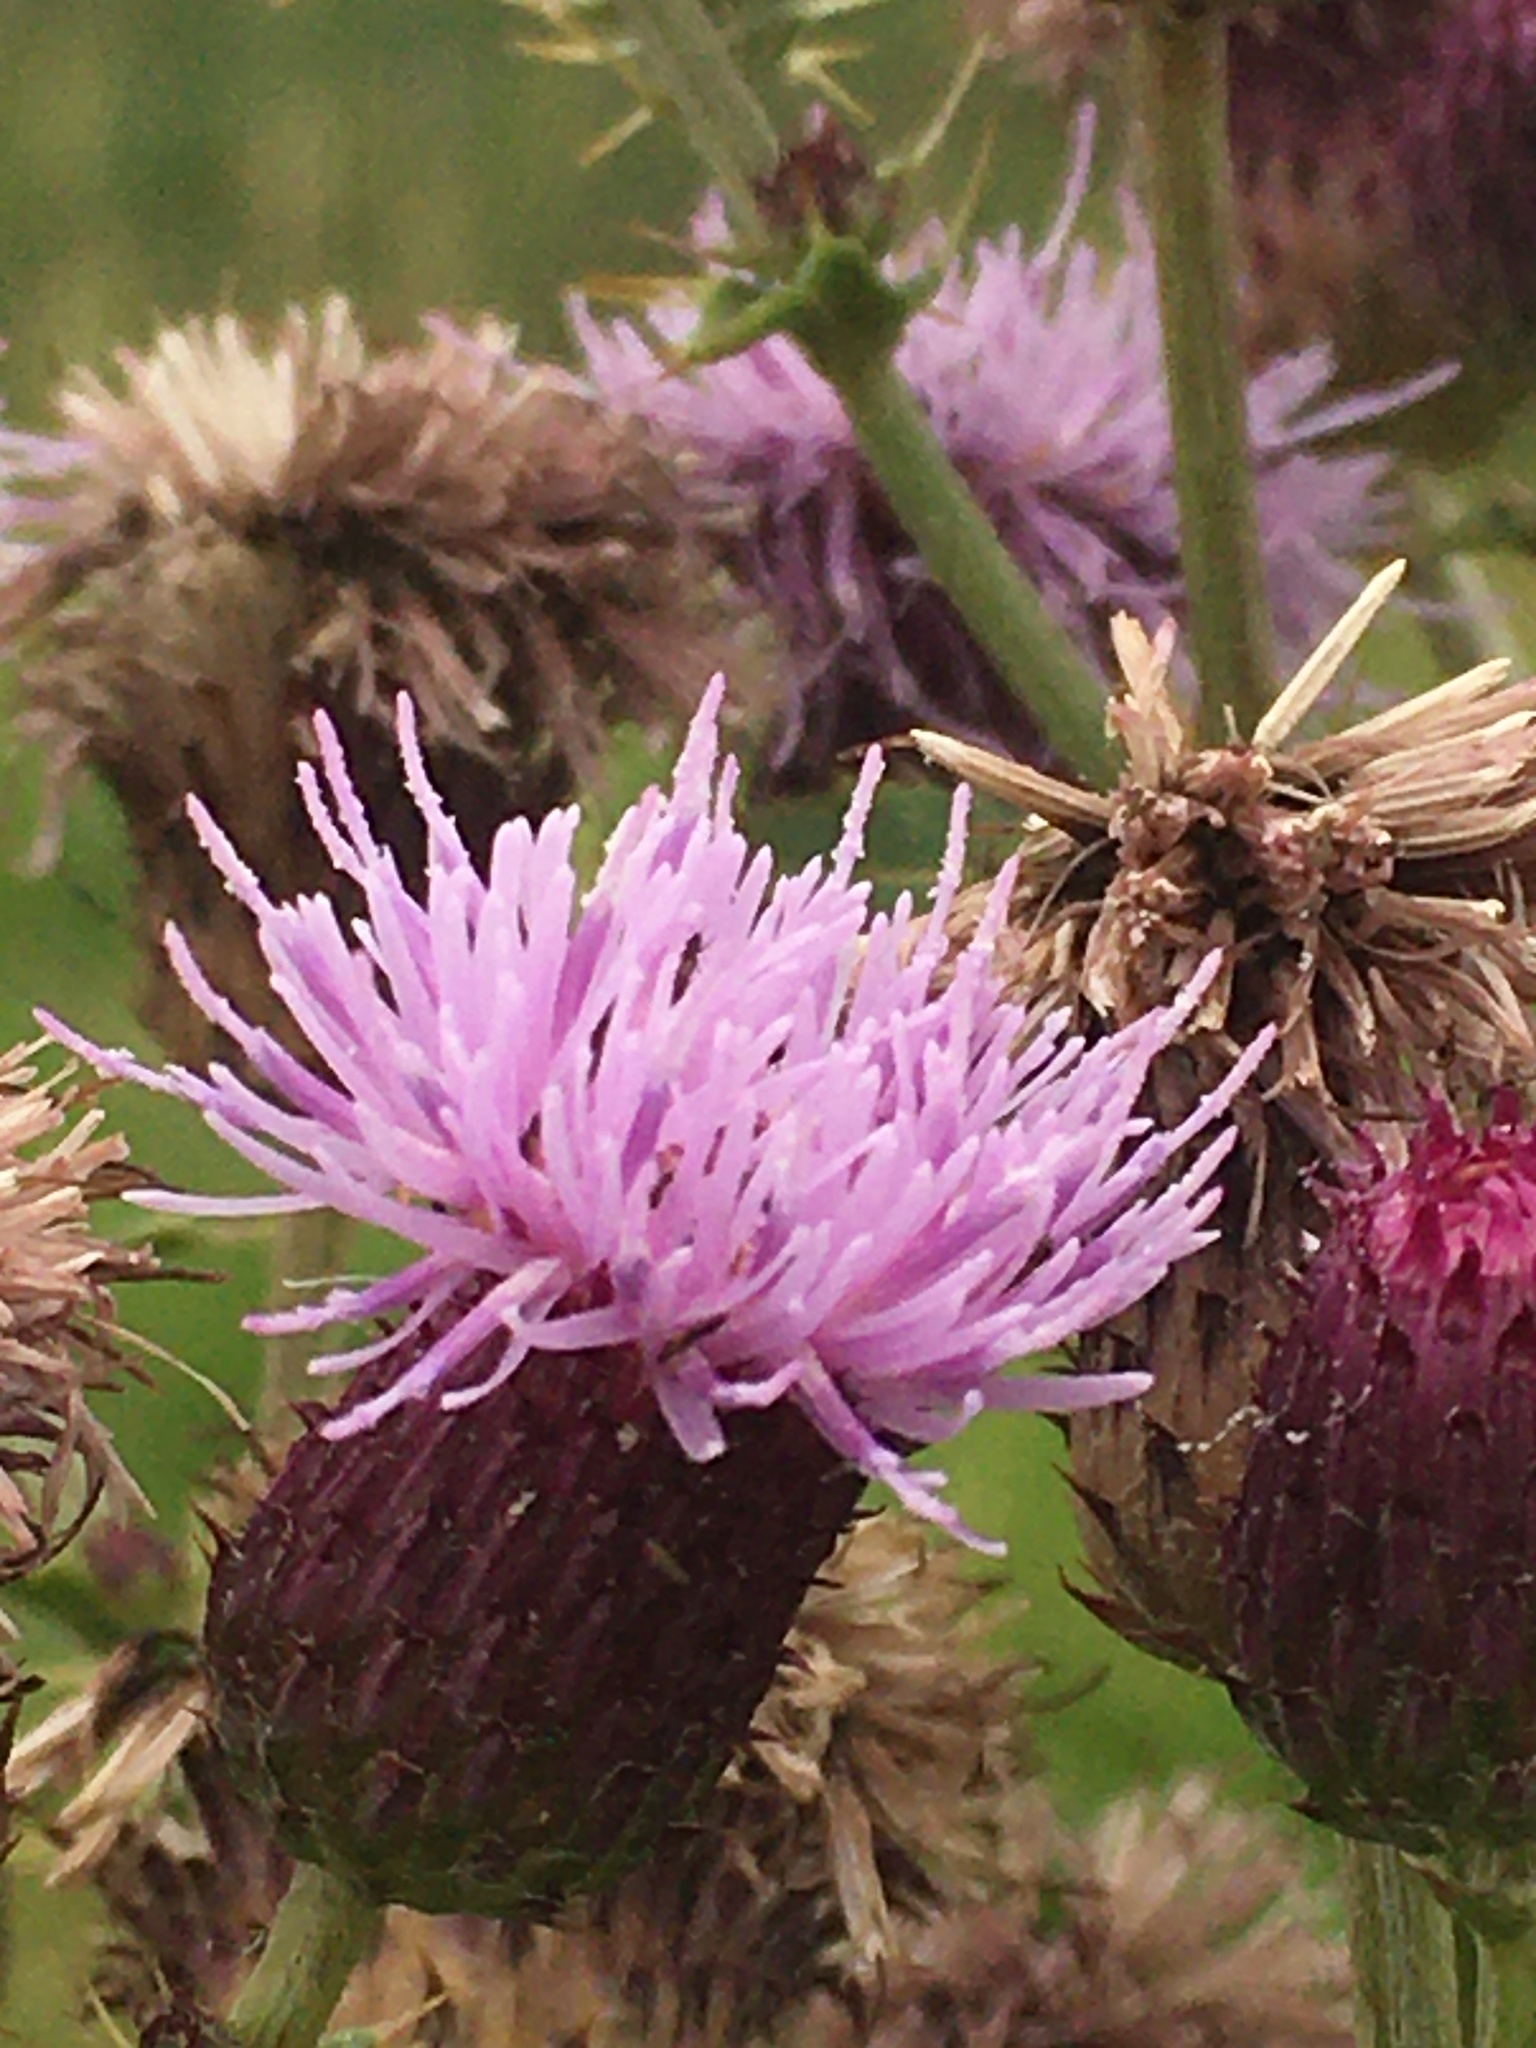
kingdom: Plantae
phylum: Tracheophyta
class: Magnoliopsida
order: Asterales
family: Asteraceae
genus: Cirsium
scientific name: Cirsium arvense
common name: Creeping thistle
